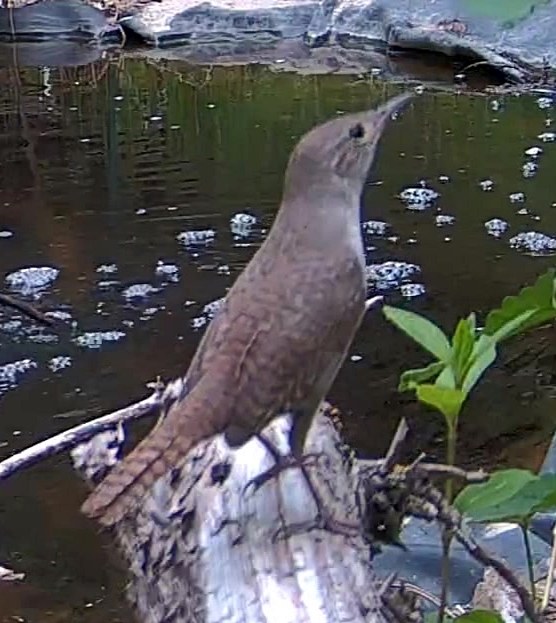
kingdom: Animalia
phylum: Chordata
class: Aves
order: Passeriformes
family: Troglodytidae
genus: Troglodytes
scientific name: Troglodytes aedon
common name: House wren
